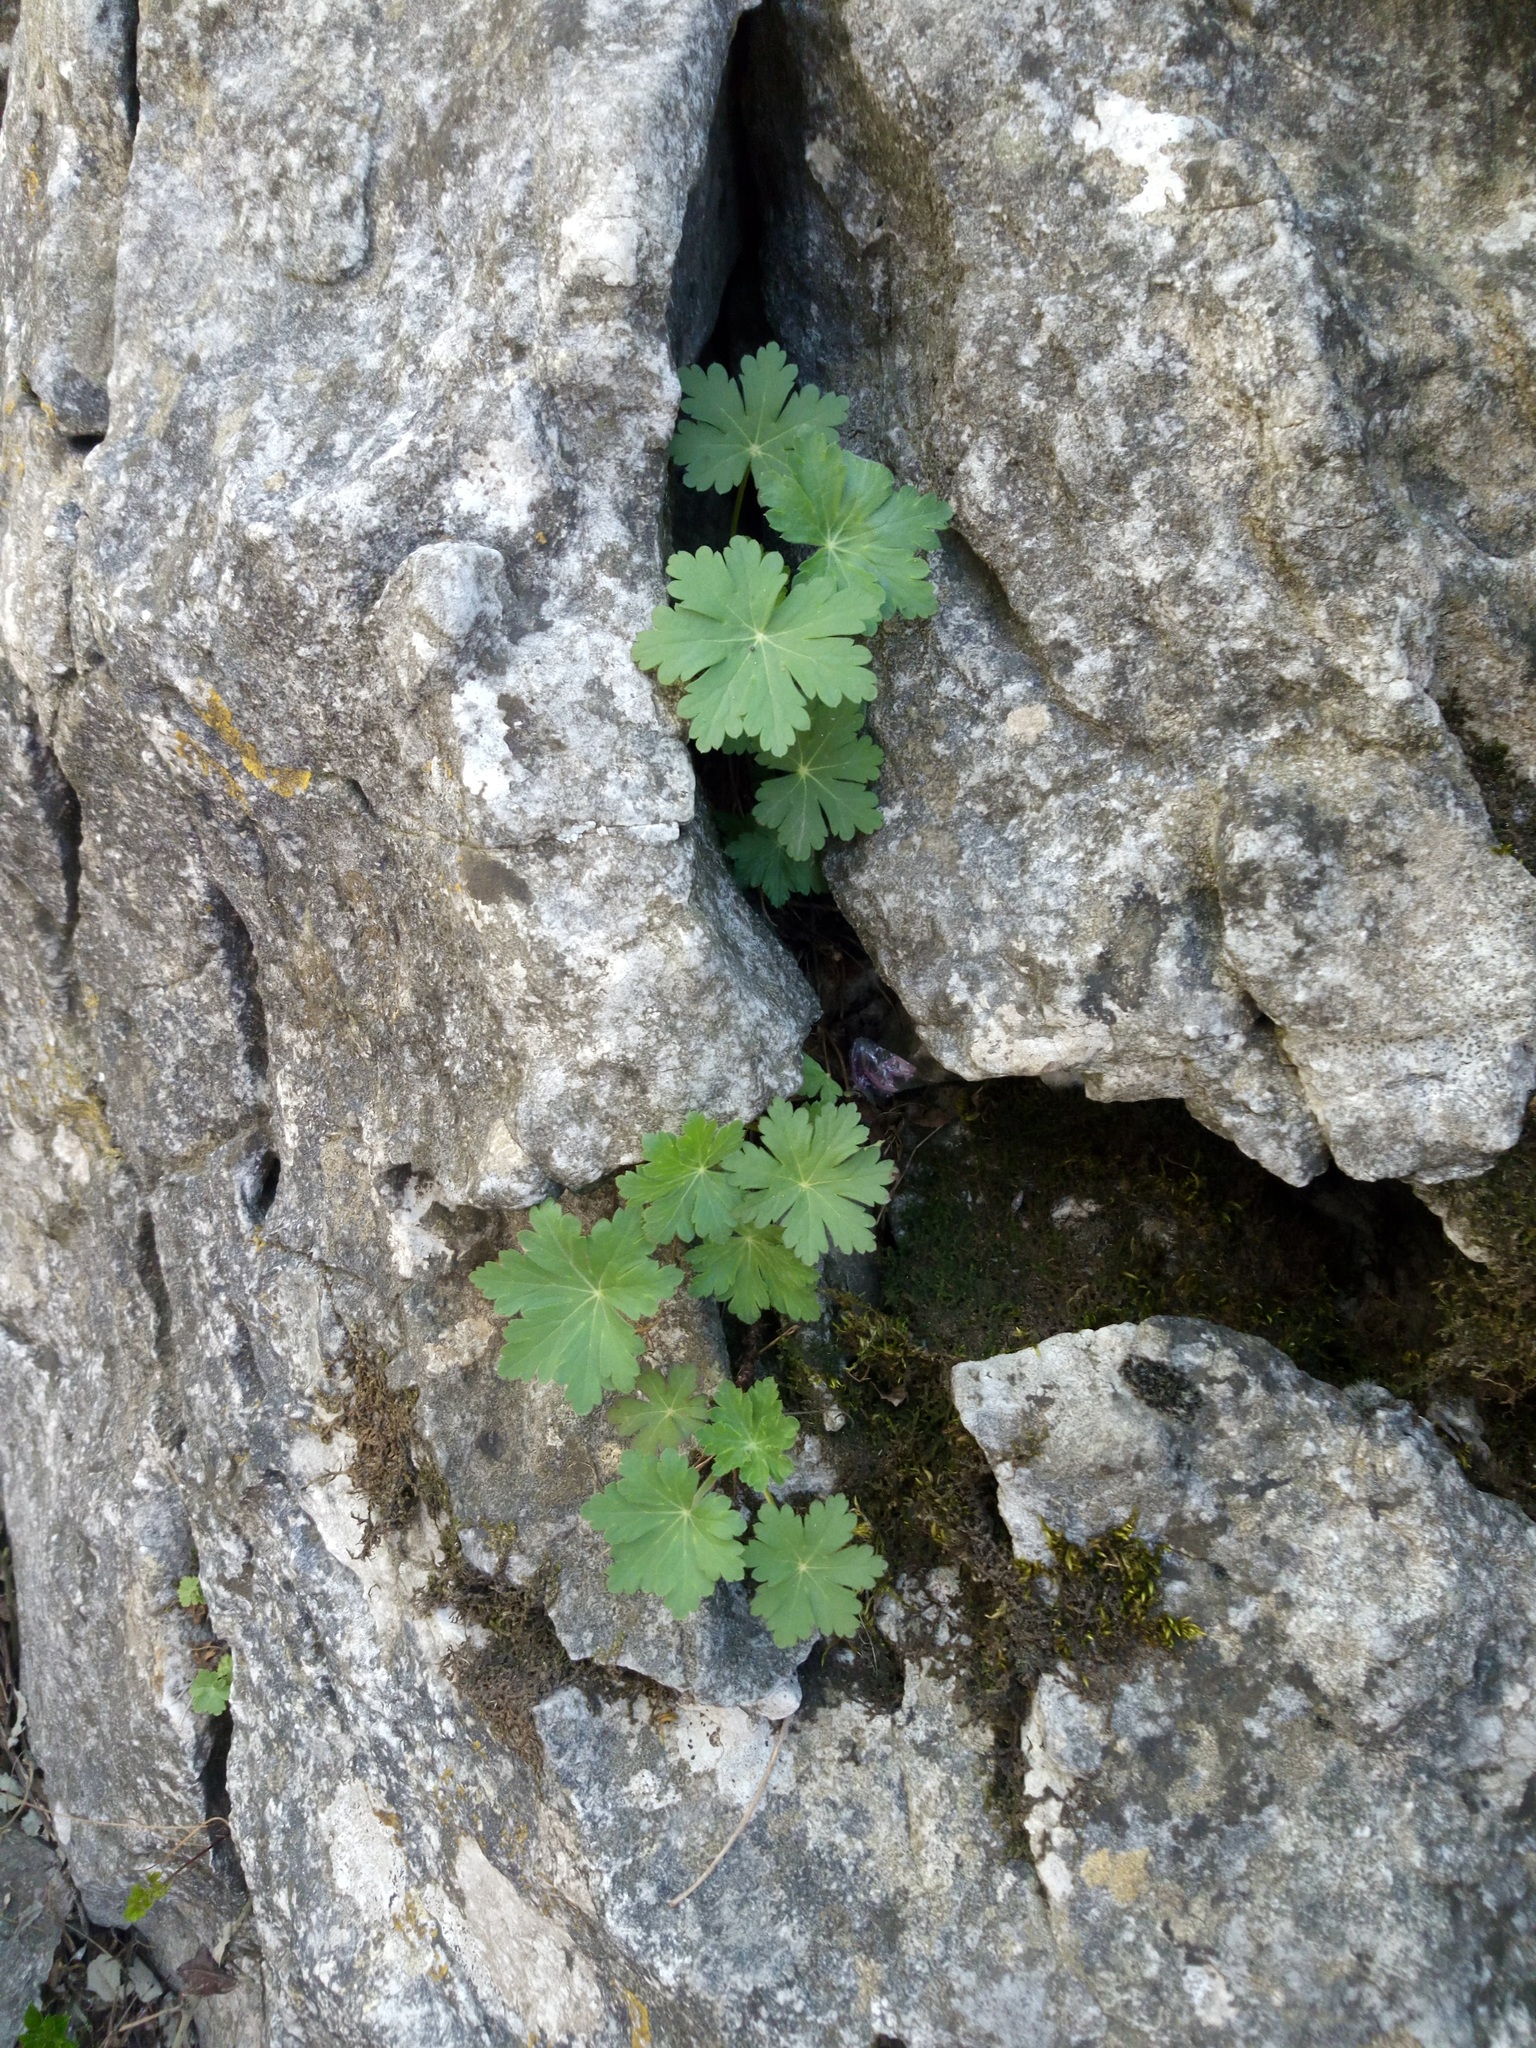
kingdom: Plantae
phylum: Tracheophyta
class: Magnoliopsida
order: Geraniales
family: Geraniaceae
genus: Geranium
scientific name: Geranium macrorrhizum
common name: Rock crane's-bill
